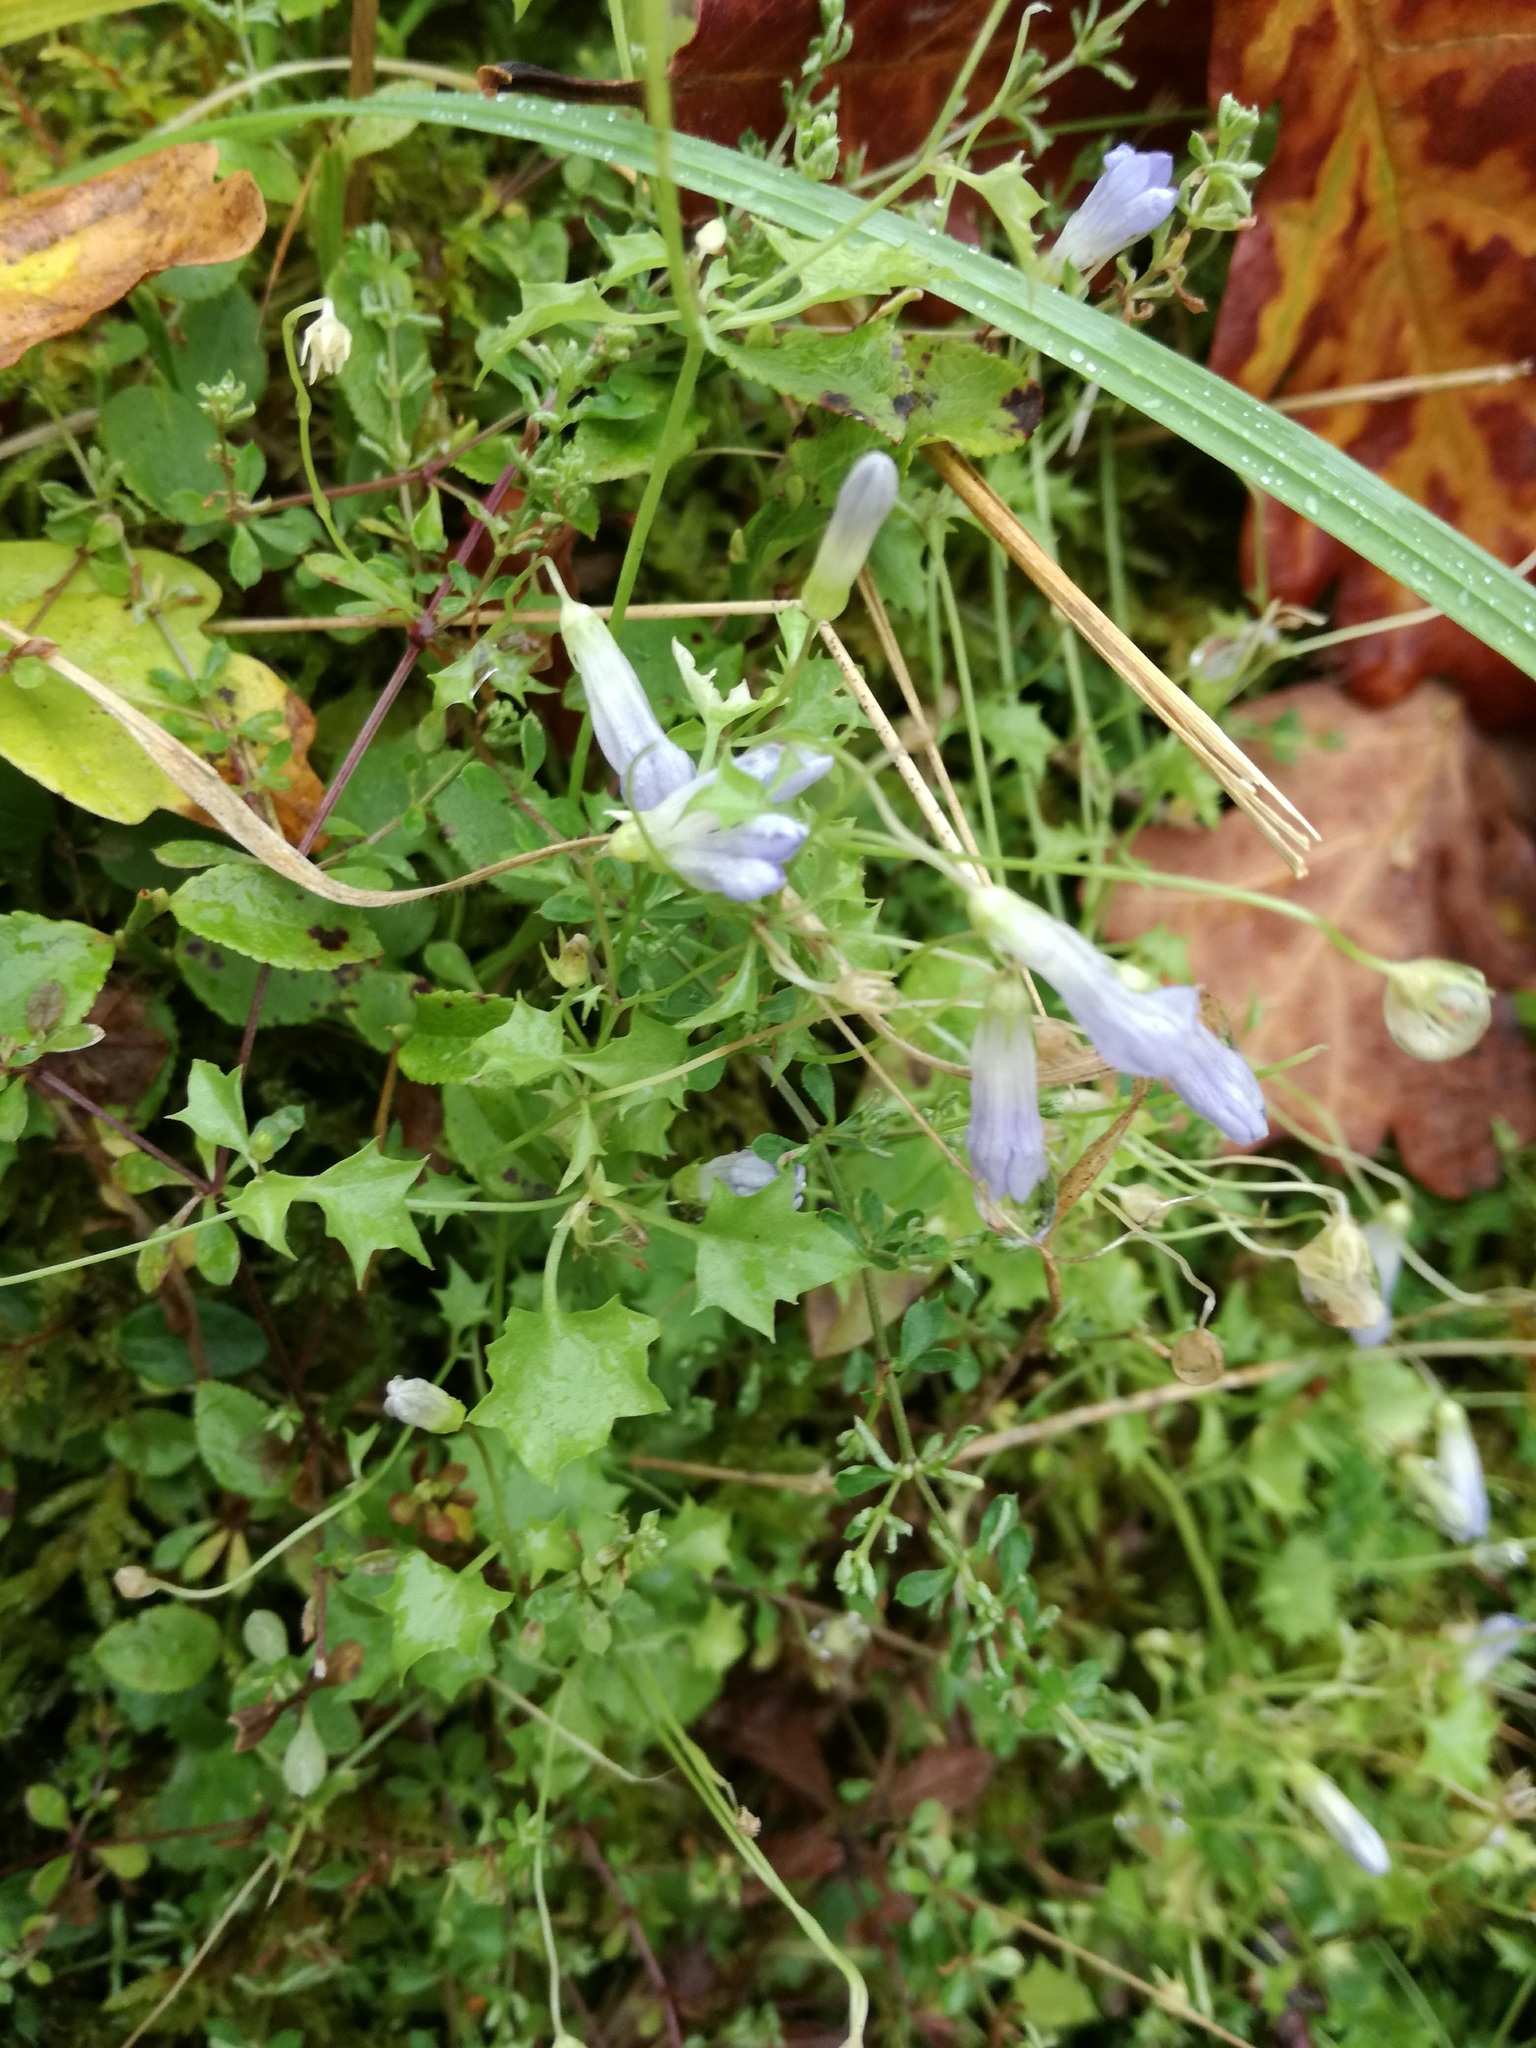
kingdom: Plantae
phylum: Tracheophyta
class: Magnoliopsida
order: Asterales
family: Campanulaceae
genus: Campanula
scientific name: Campanula rotundifolia
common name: Harebell
